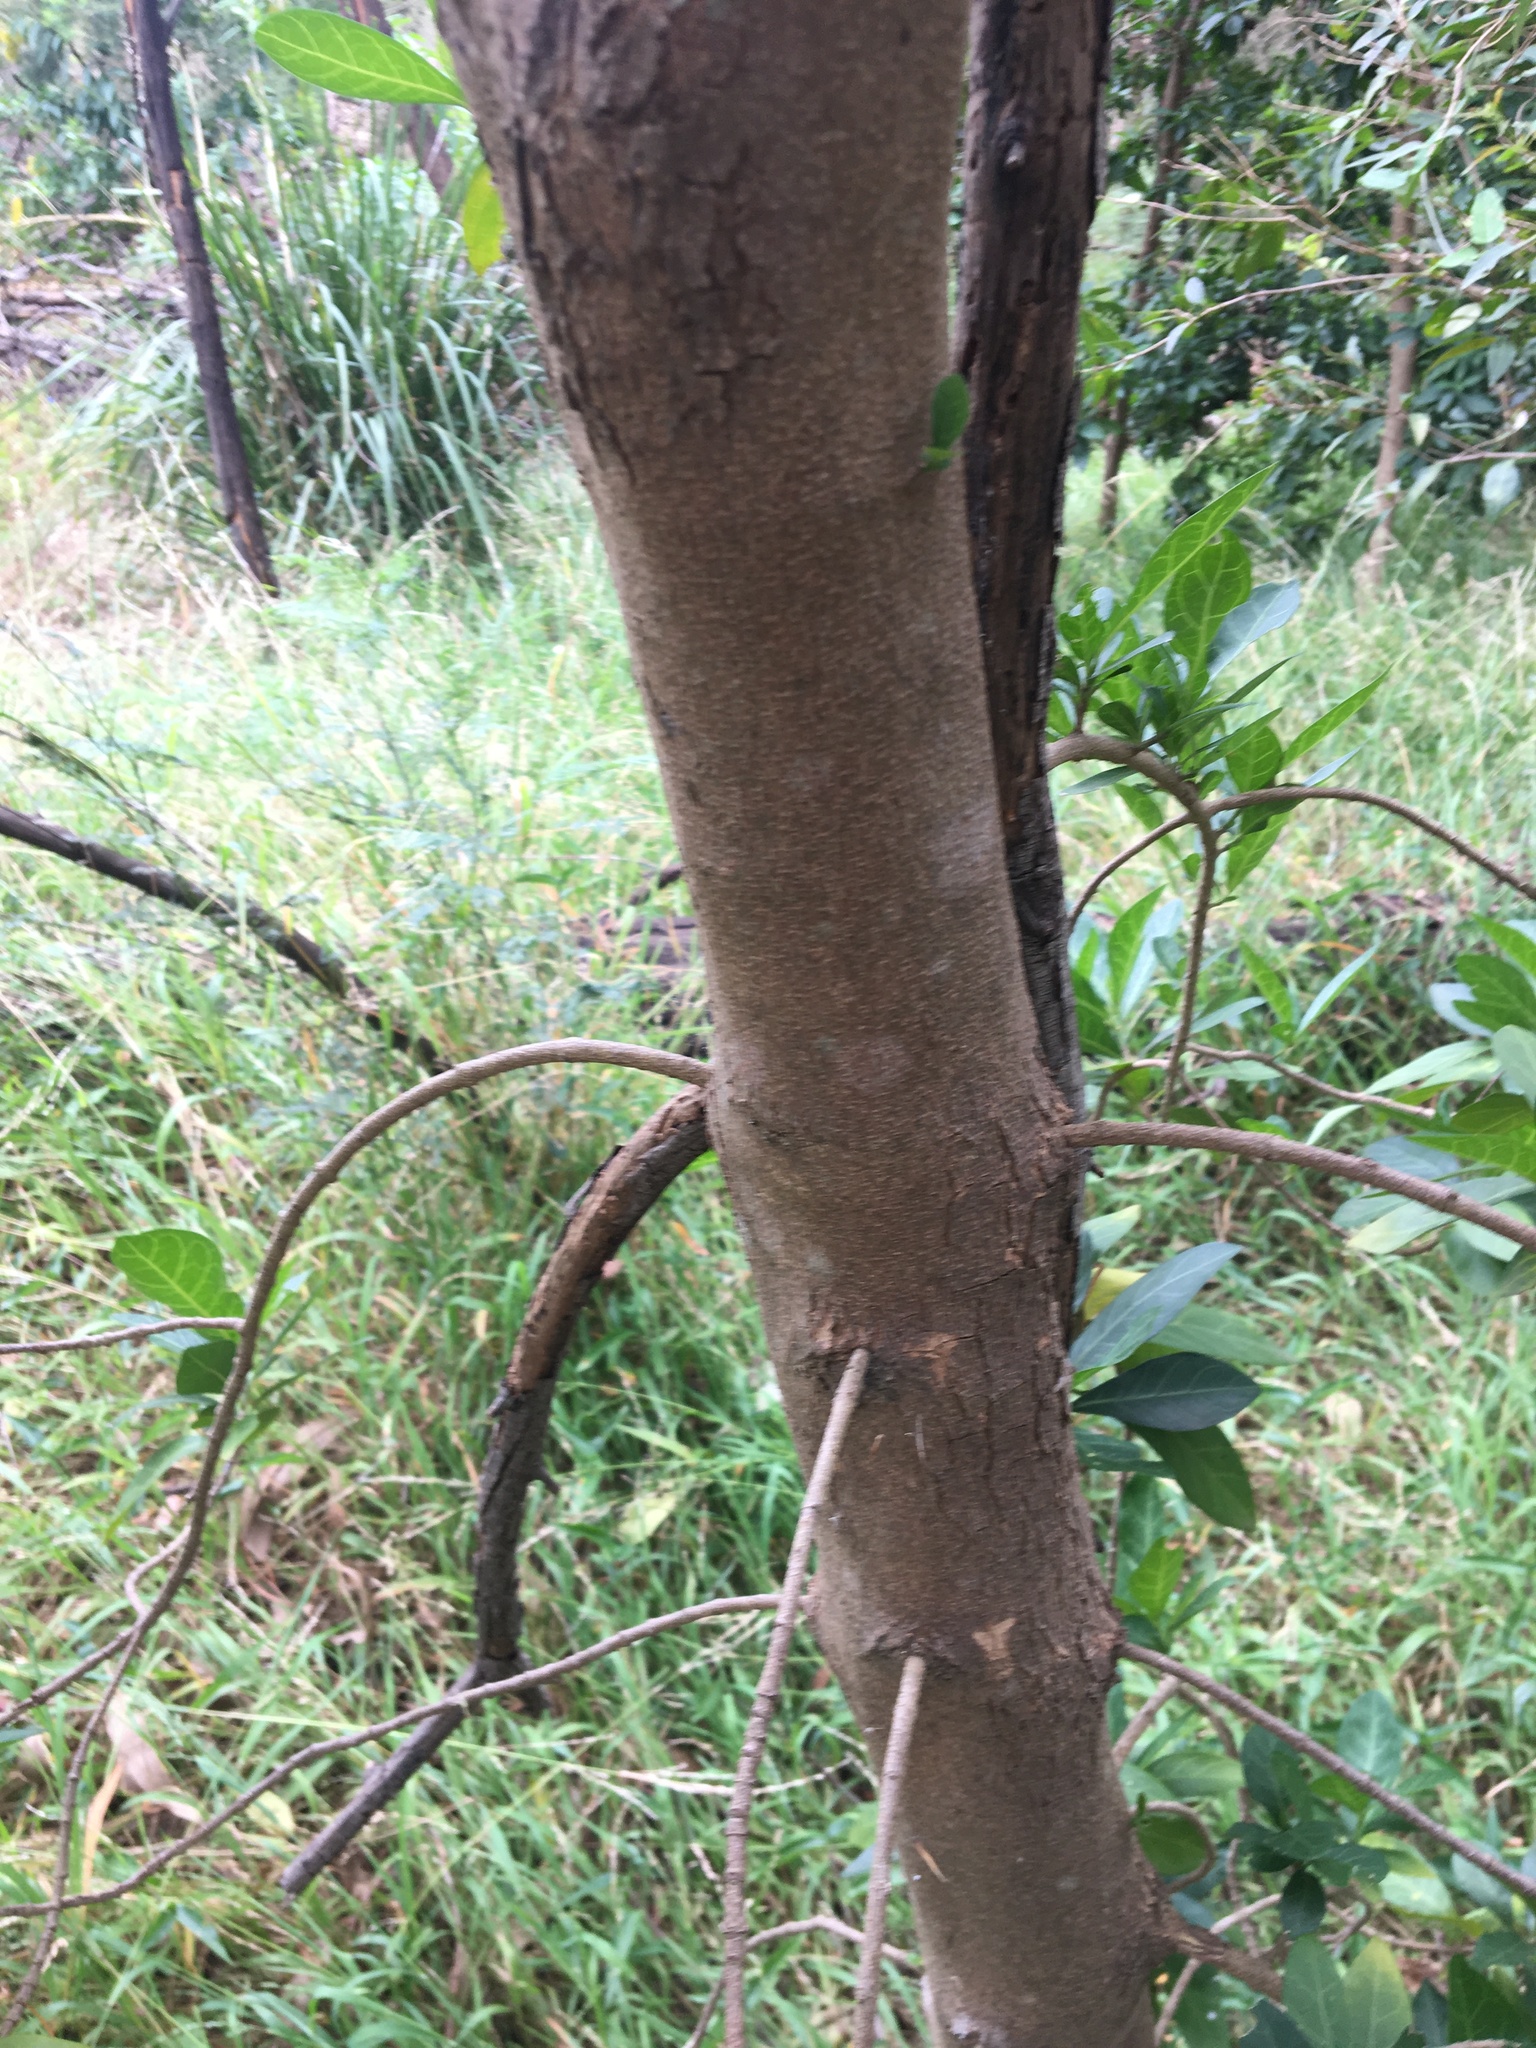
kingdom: Plantae
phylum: Tracheophyta
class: Magnoliopsida
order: Gentianales
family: Rubiaceae
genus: Rothmannia
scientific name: Rothmannia globosa
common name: September bells
